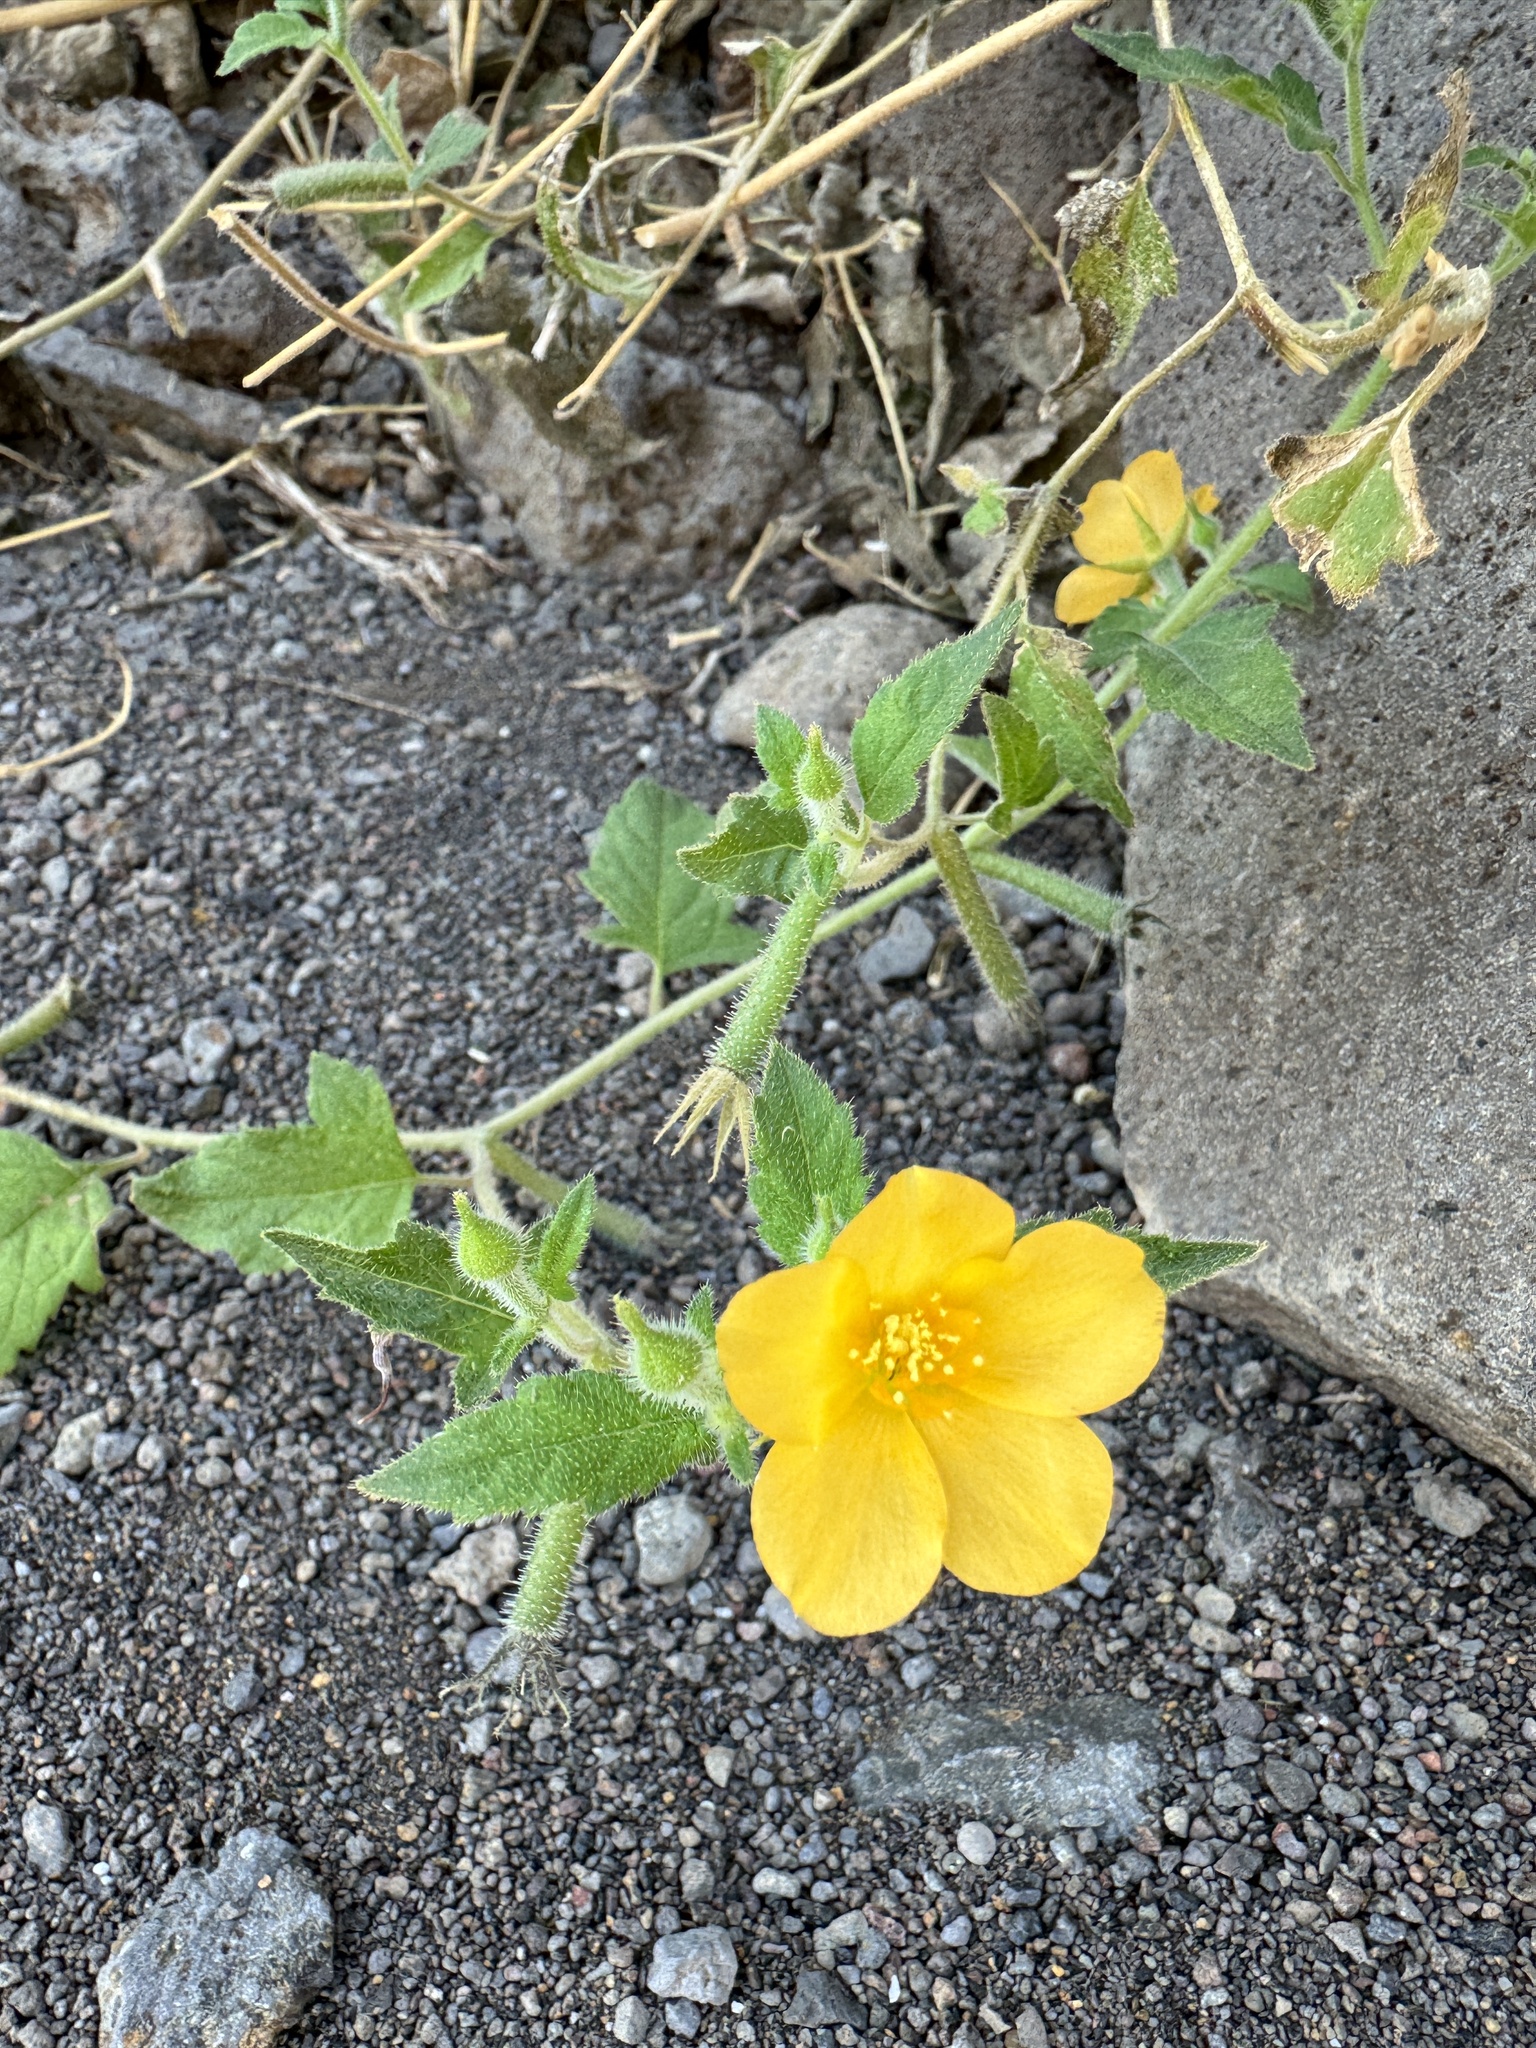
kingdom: Plantae
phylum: Tracheophyta
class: Magnoliopsida
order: Cornales
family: Loasaceae
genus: Mentzelia
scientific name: Mentzelia aspera
